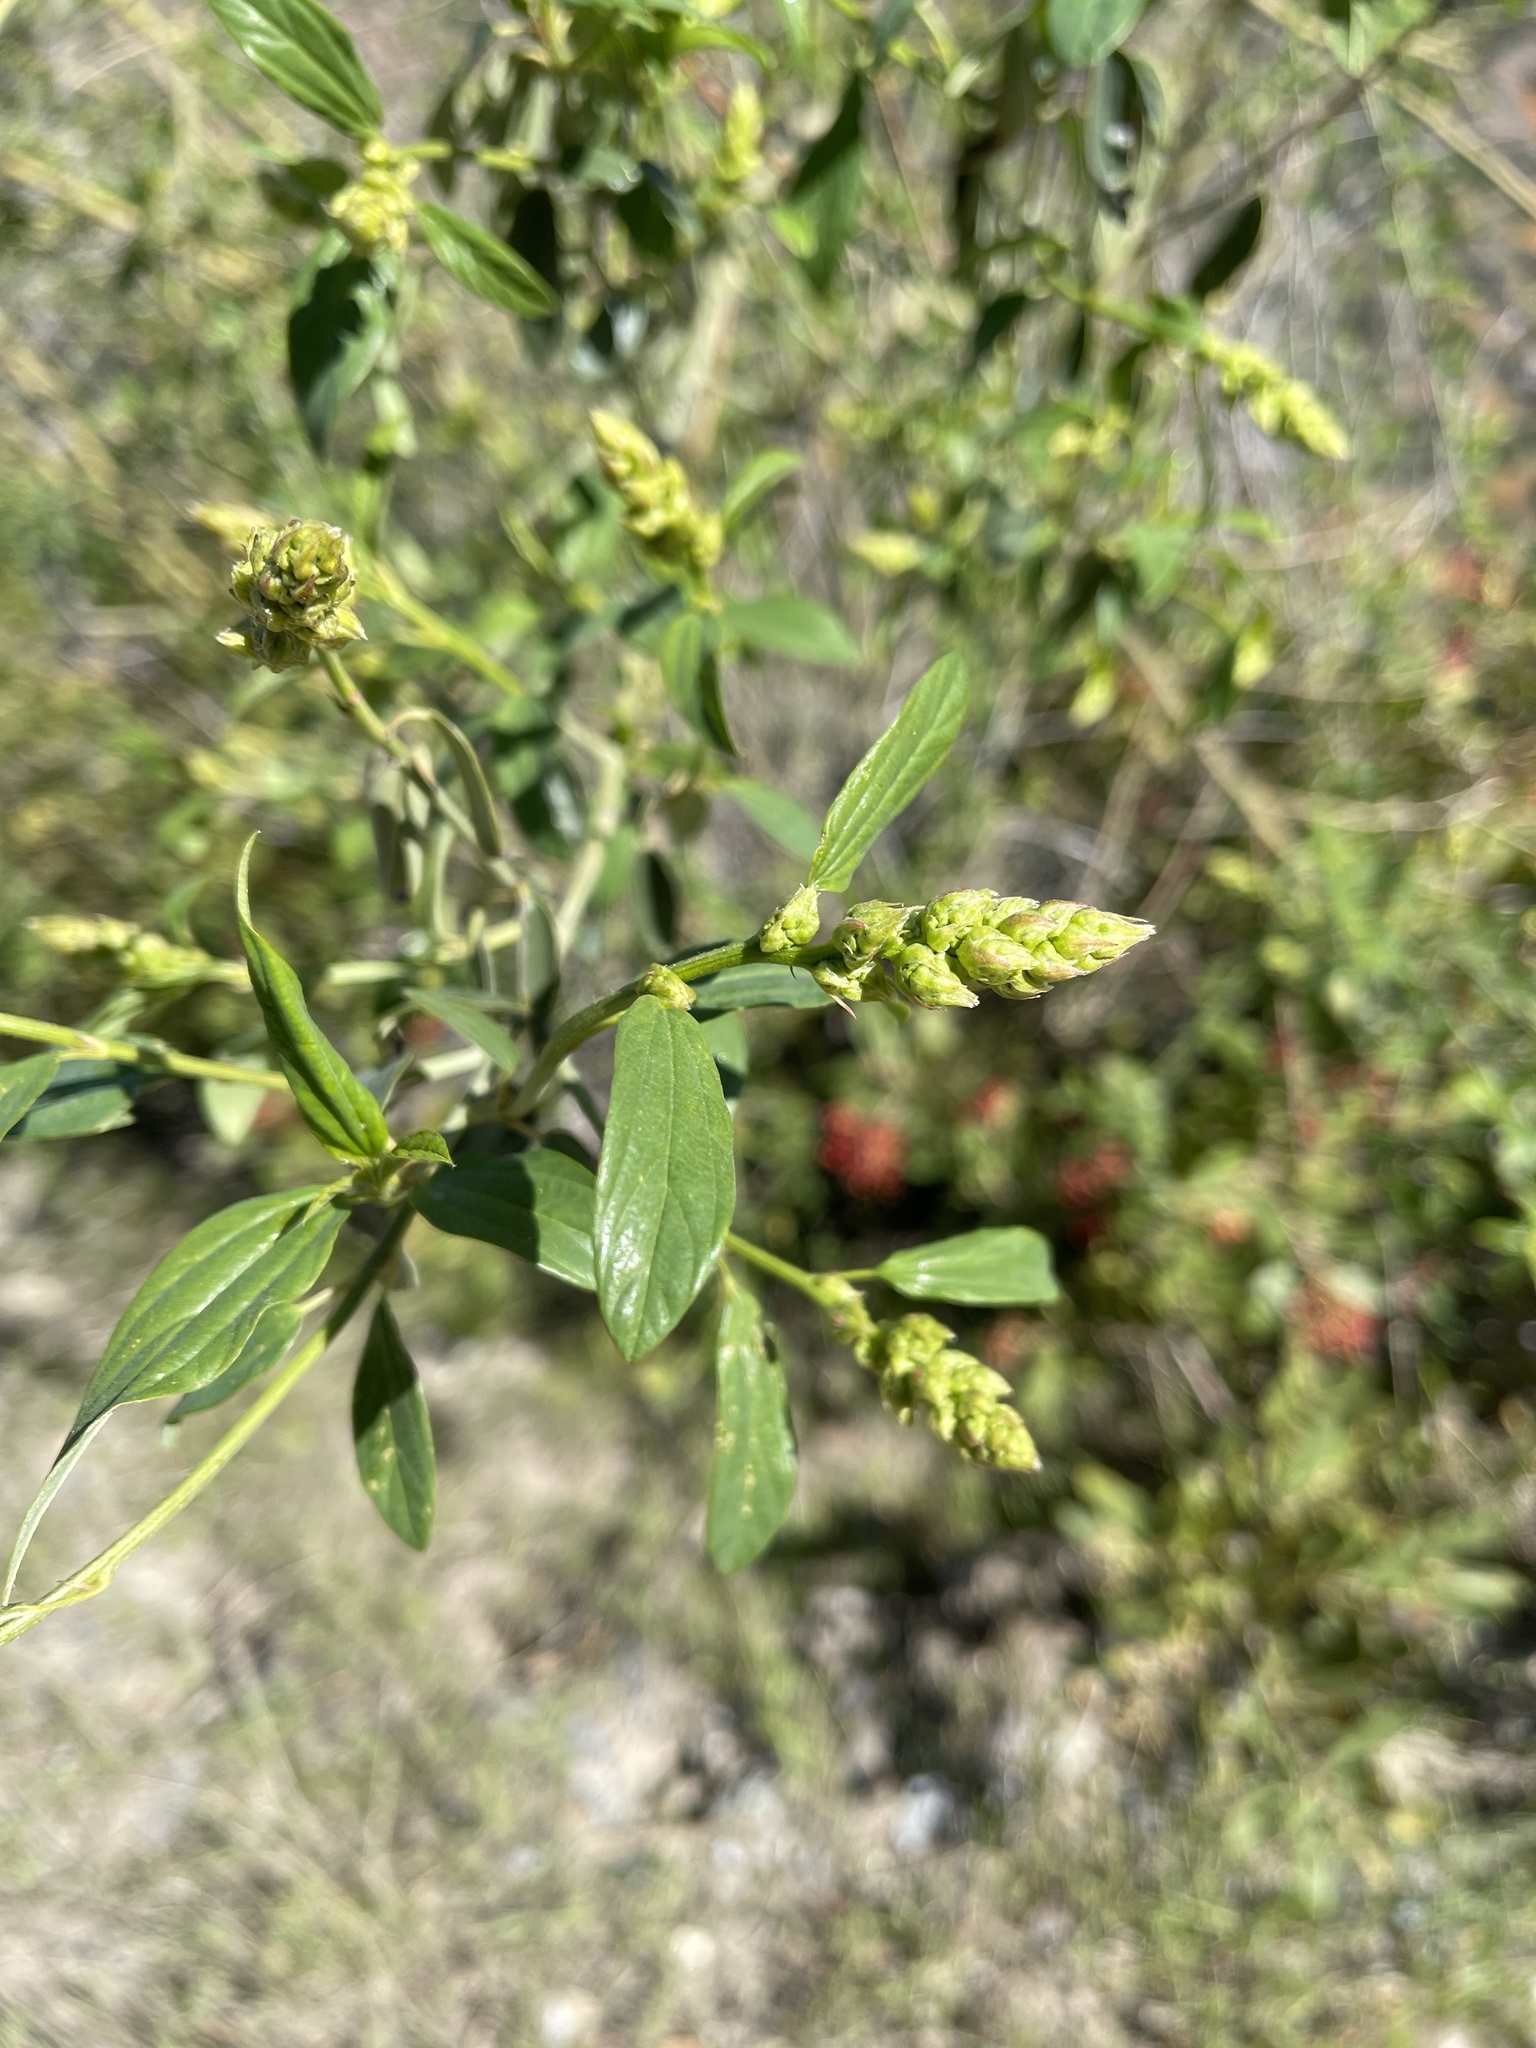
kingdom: Plantae
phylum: Tracheophyta
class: Magnoliopsida
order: Rosales
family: Rhamnaceae
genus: Ceanothus
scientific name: Ceanothus integerrimus
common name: Deerbrush ceanothus
